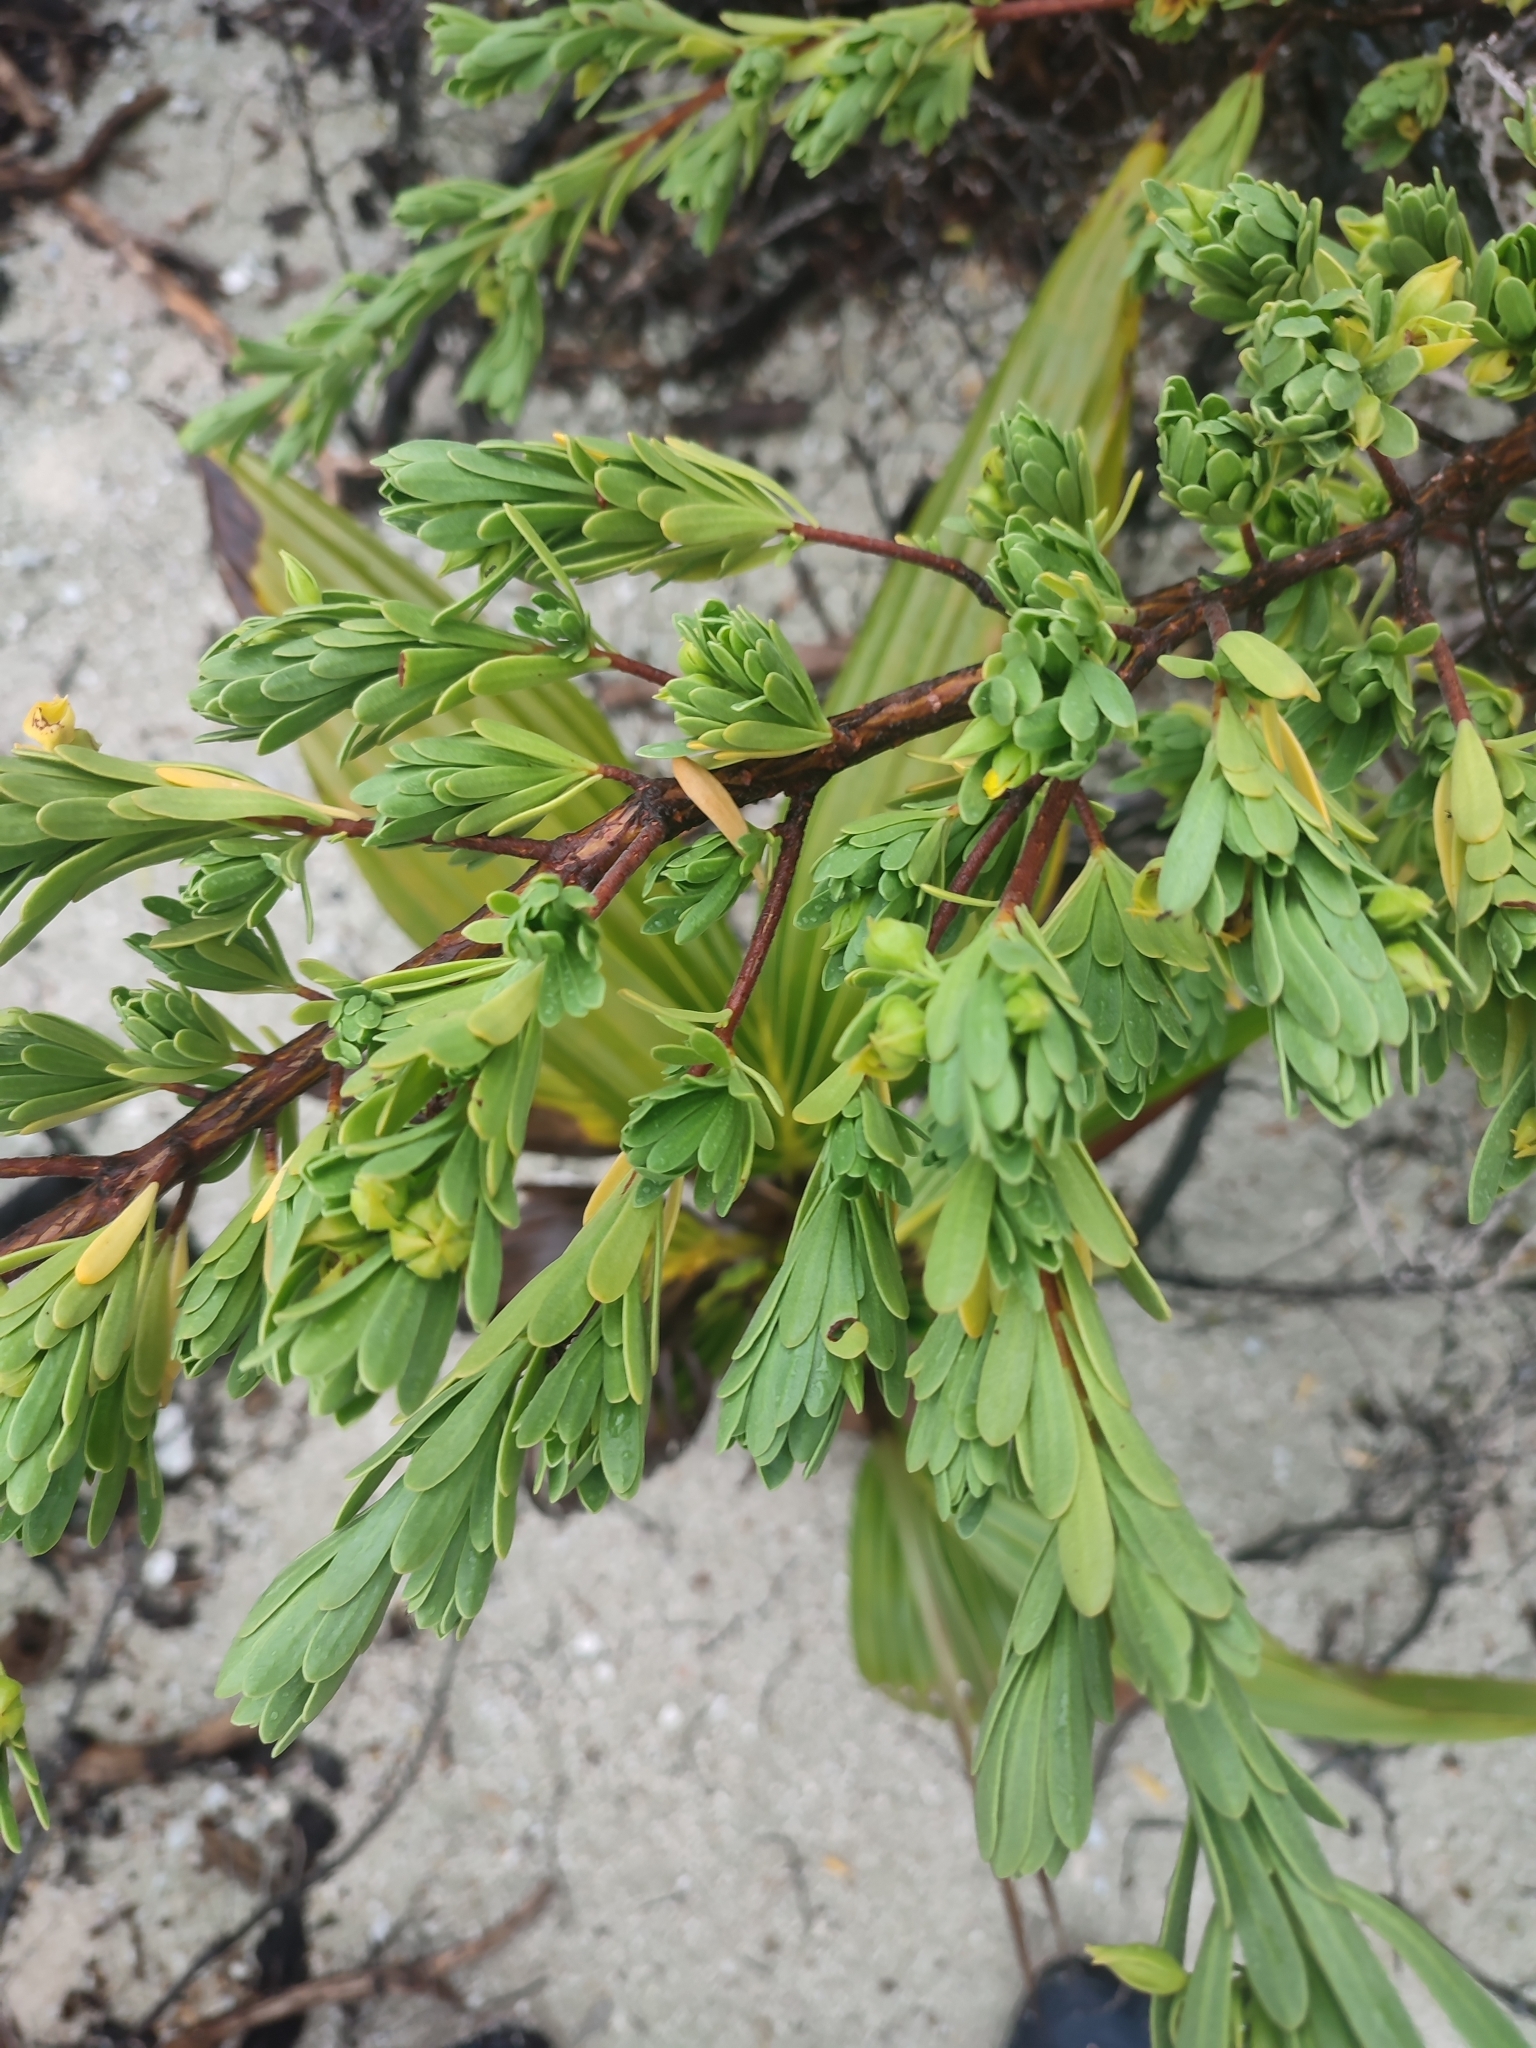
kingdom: Plantae
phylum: Tracheophyta
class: Magnoliopsida
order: Fabales
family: Surianaceae
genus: Suriana
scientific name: Suriana maritima
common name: Bay-cedar
